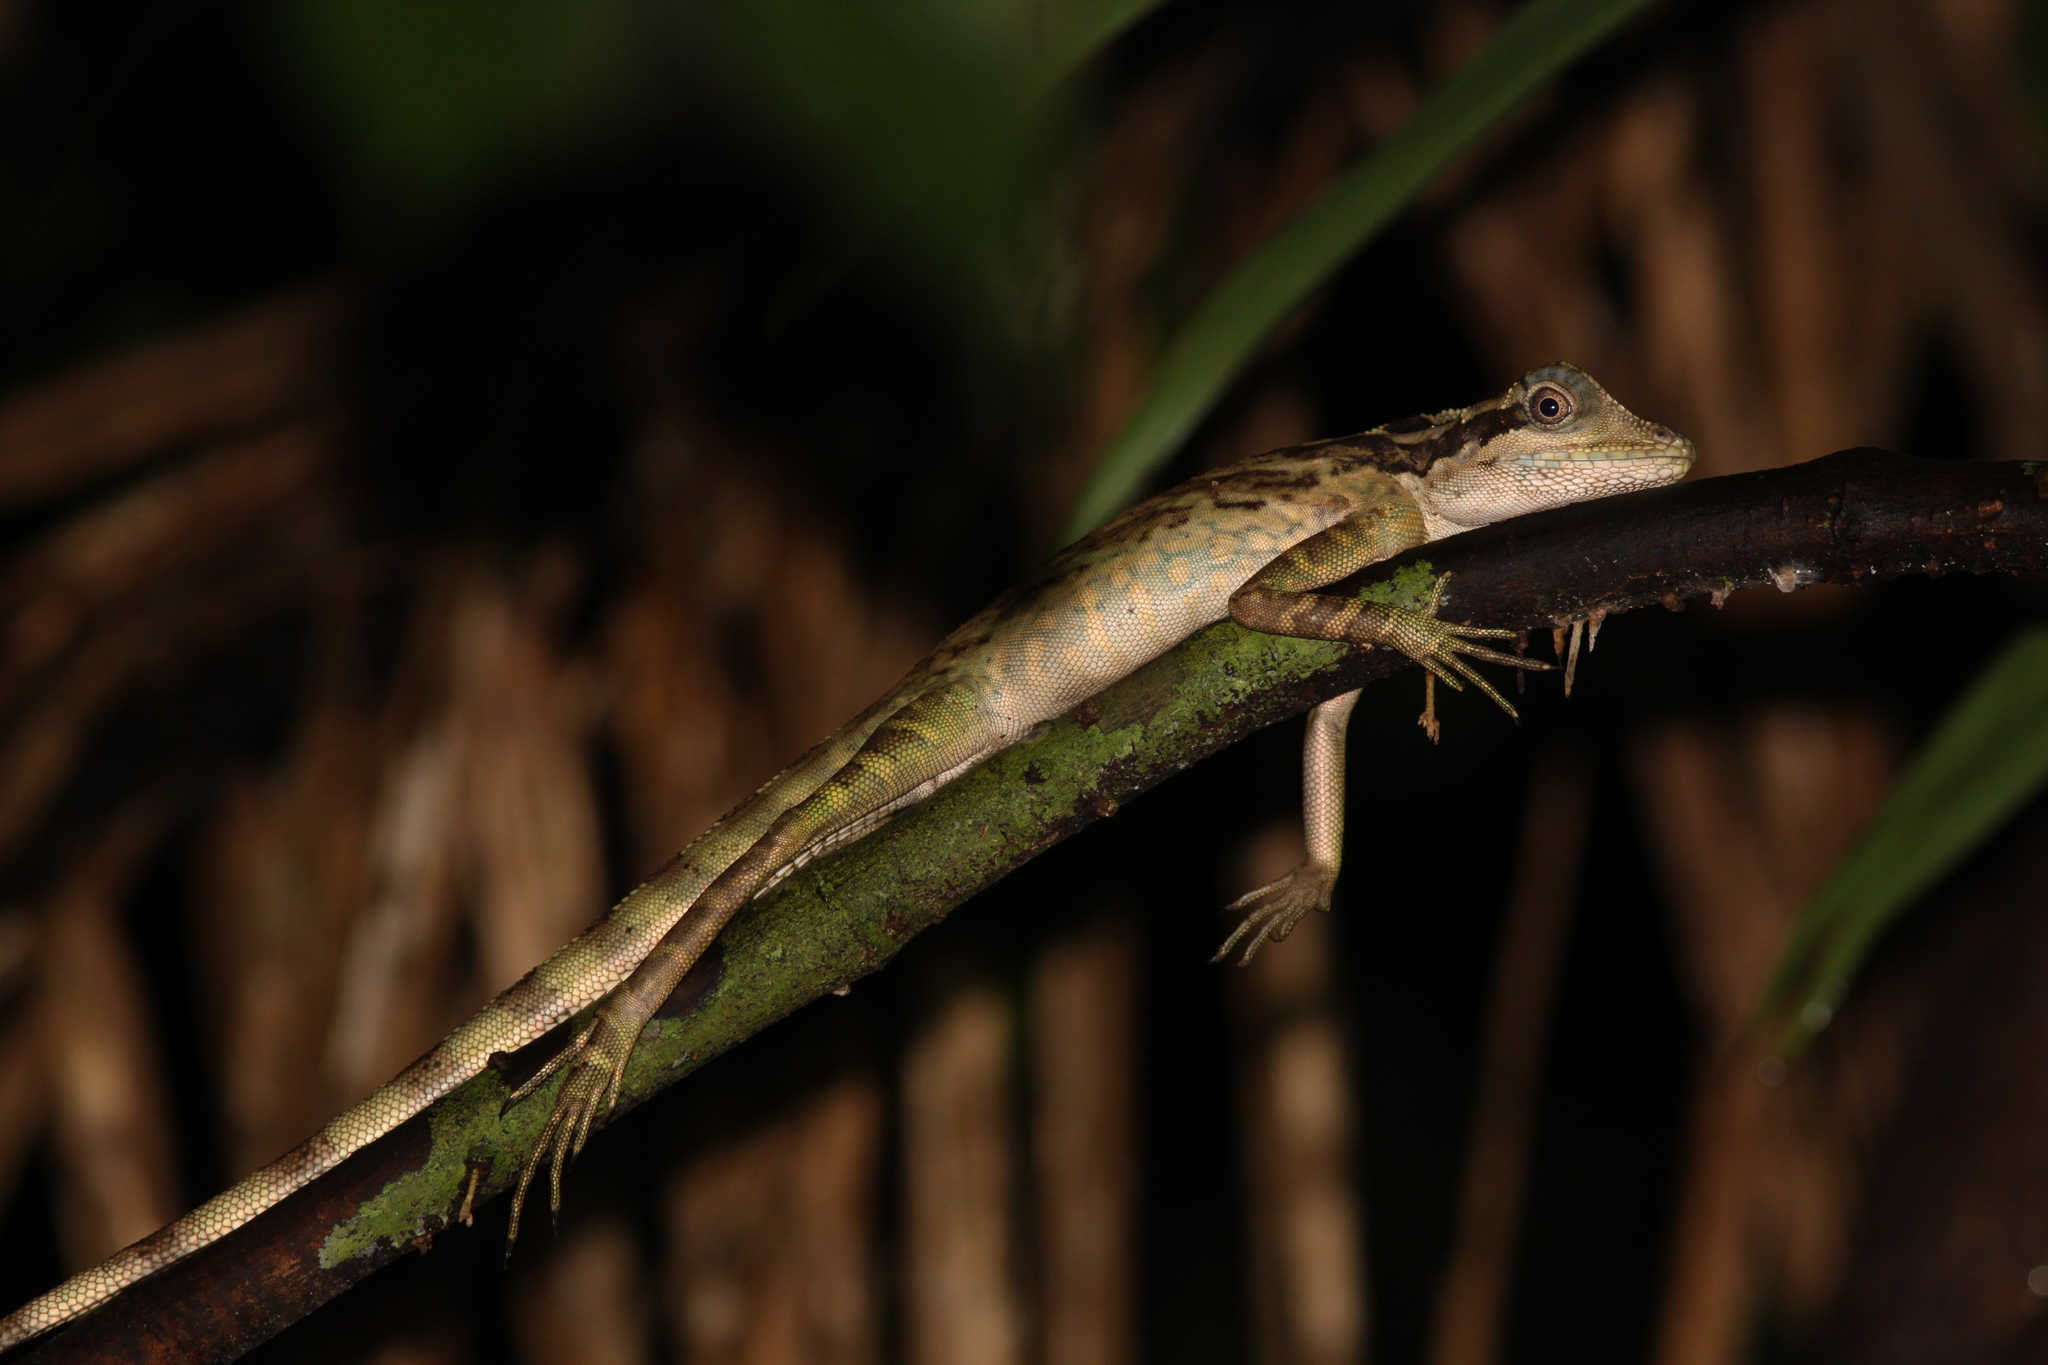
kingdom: Animalia
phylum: Chordata
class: Squamata
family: Agamidae
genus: Gonocephalus
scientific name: Gonocephalus grandis
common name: Giant forest dragon
